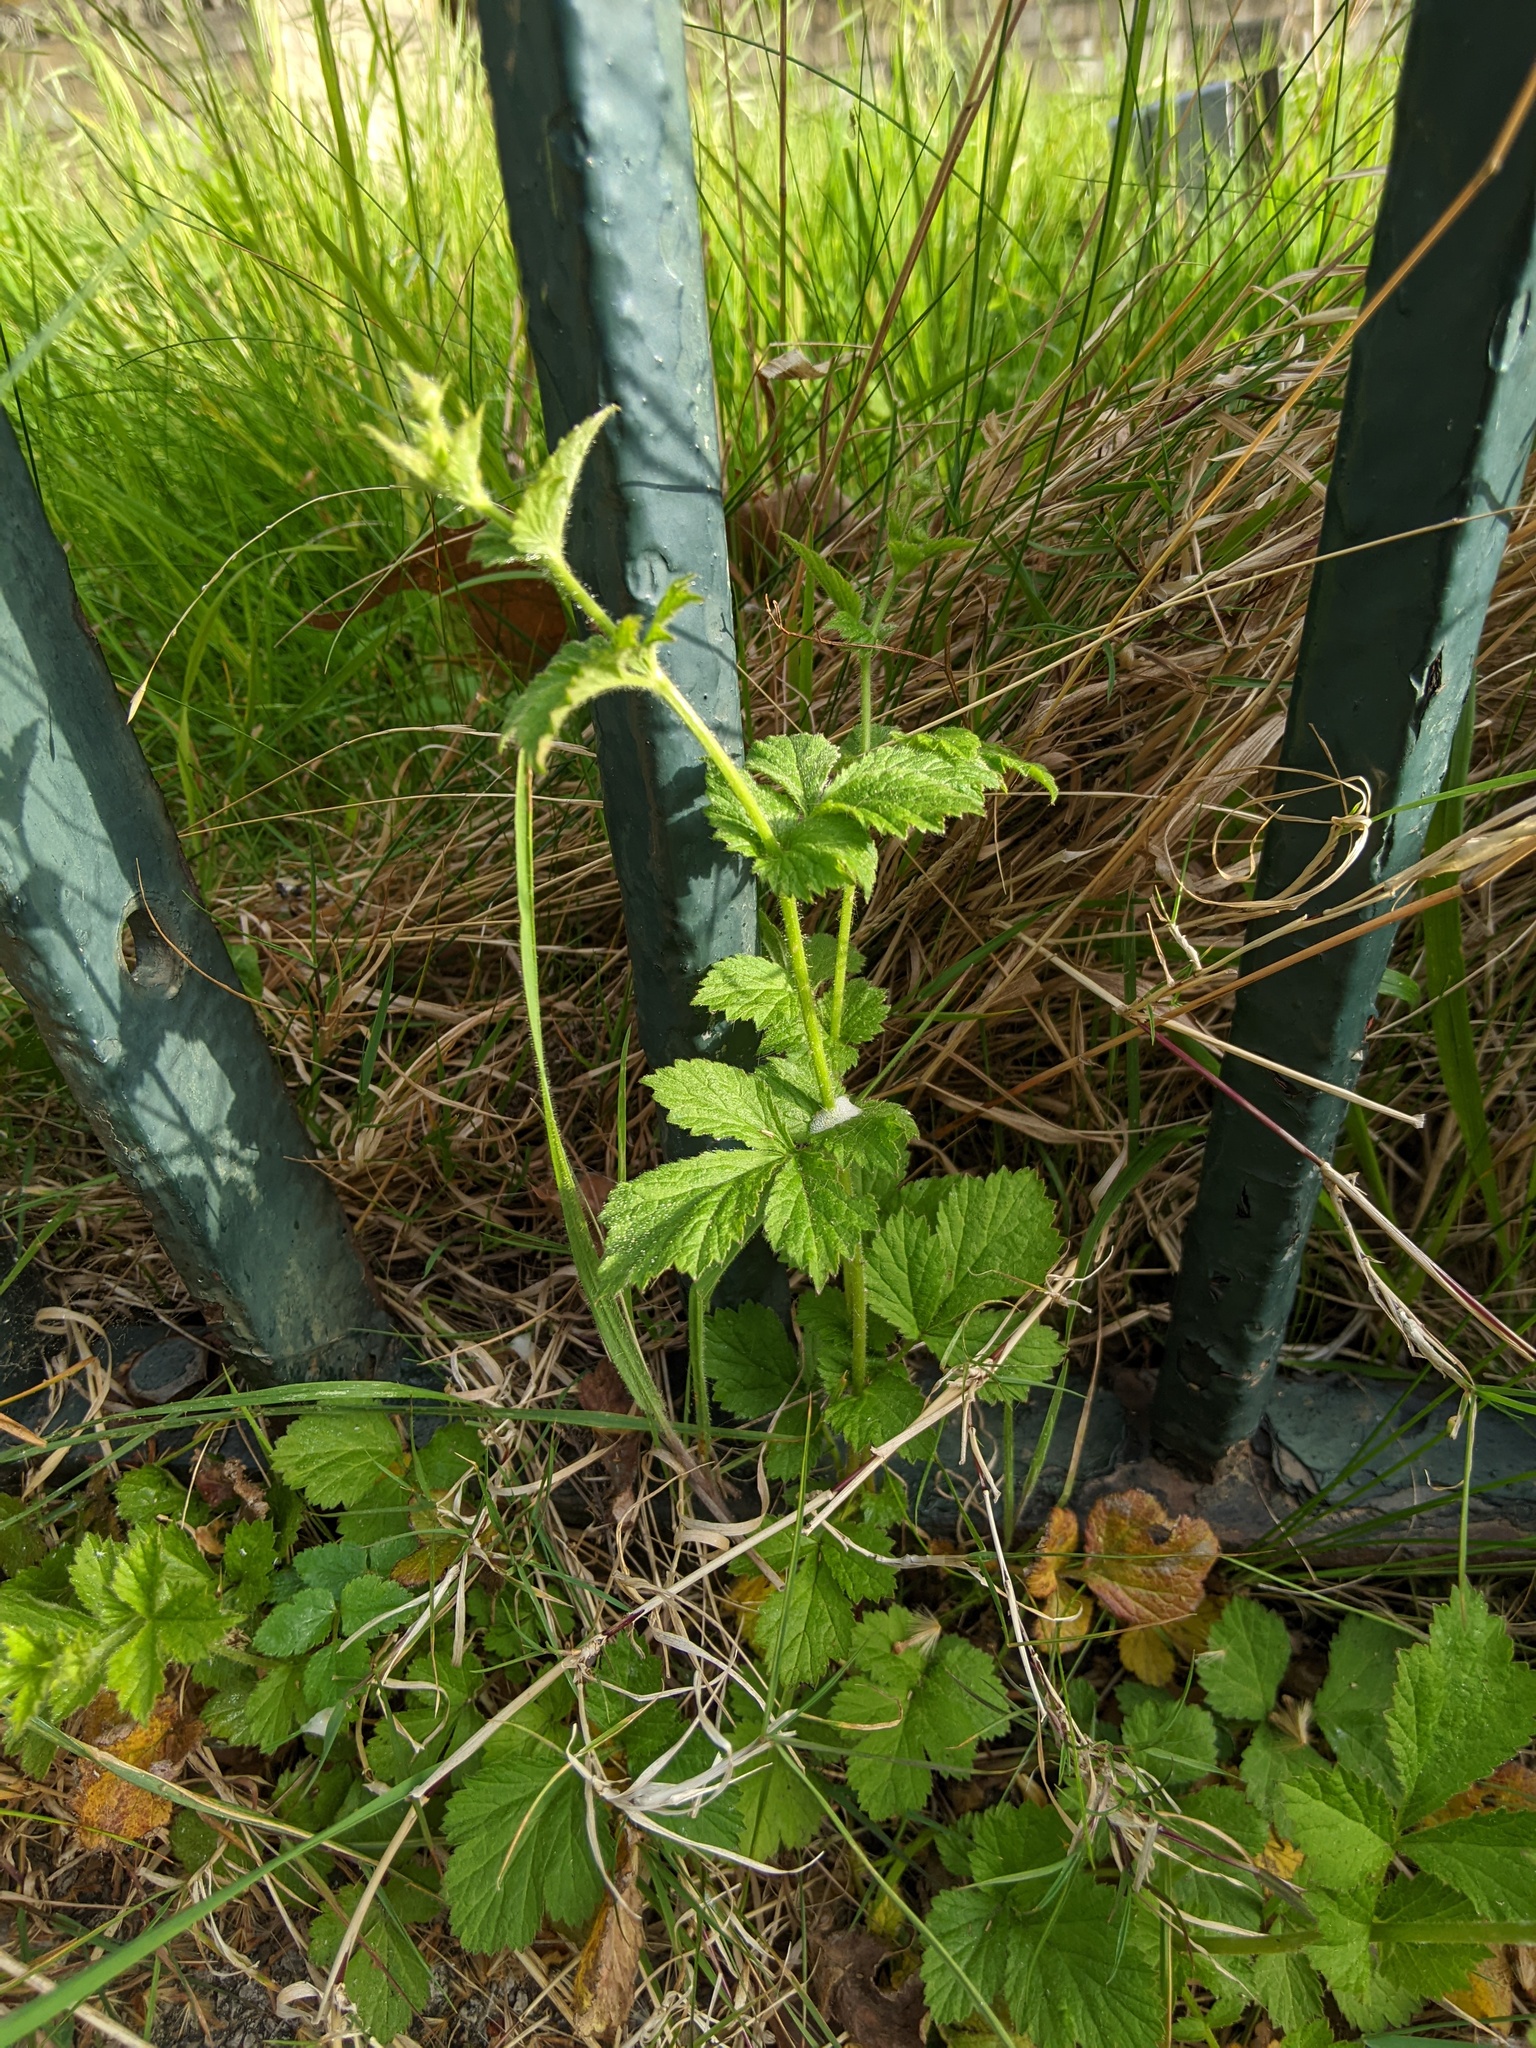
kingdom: Plantae
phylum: Tracheophyta
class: Magnoliopsida
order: Rosales
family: Rosaceae
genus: Geum
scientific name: Geum urbanum
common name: Wood avens
